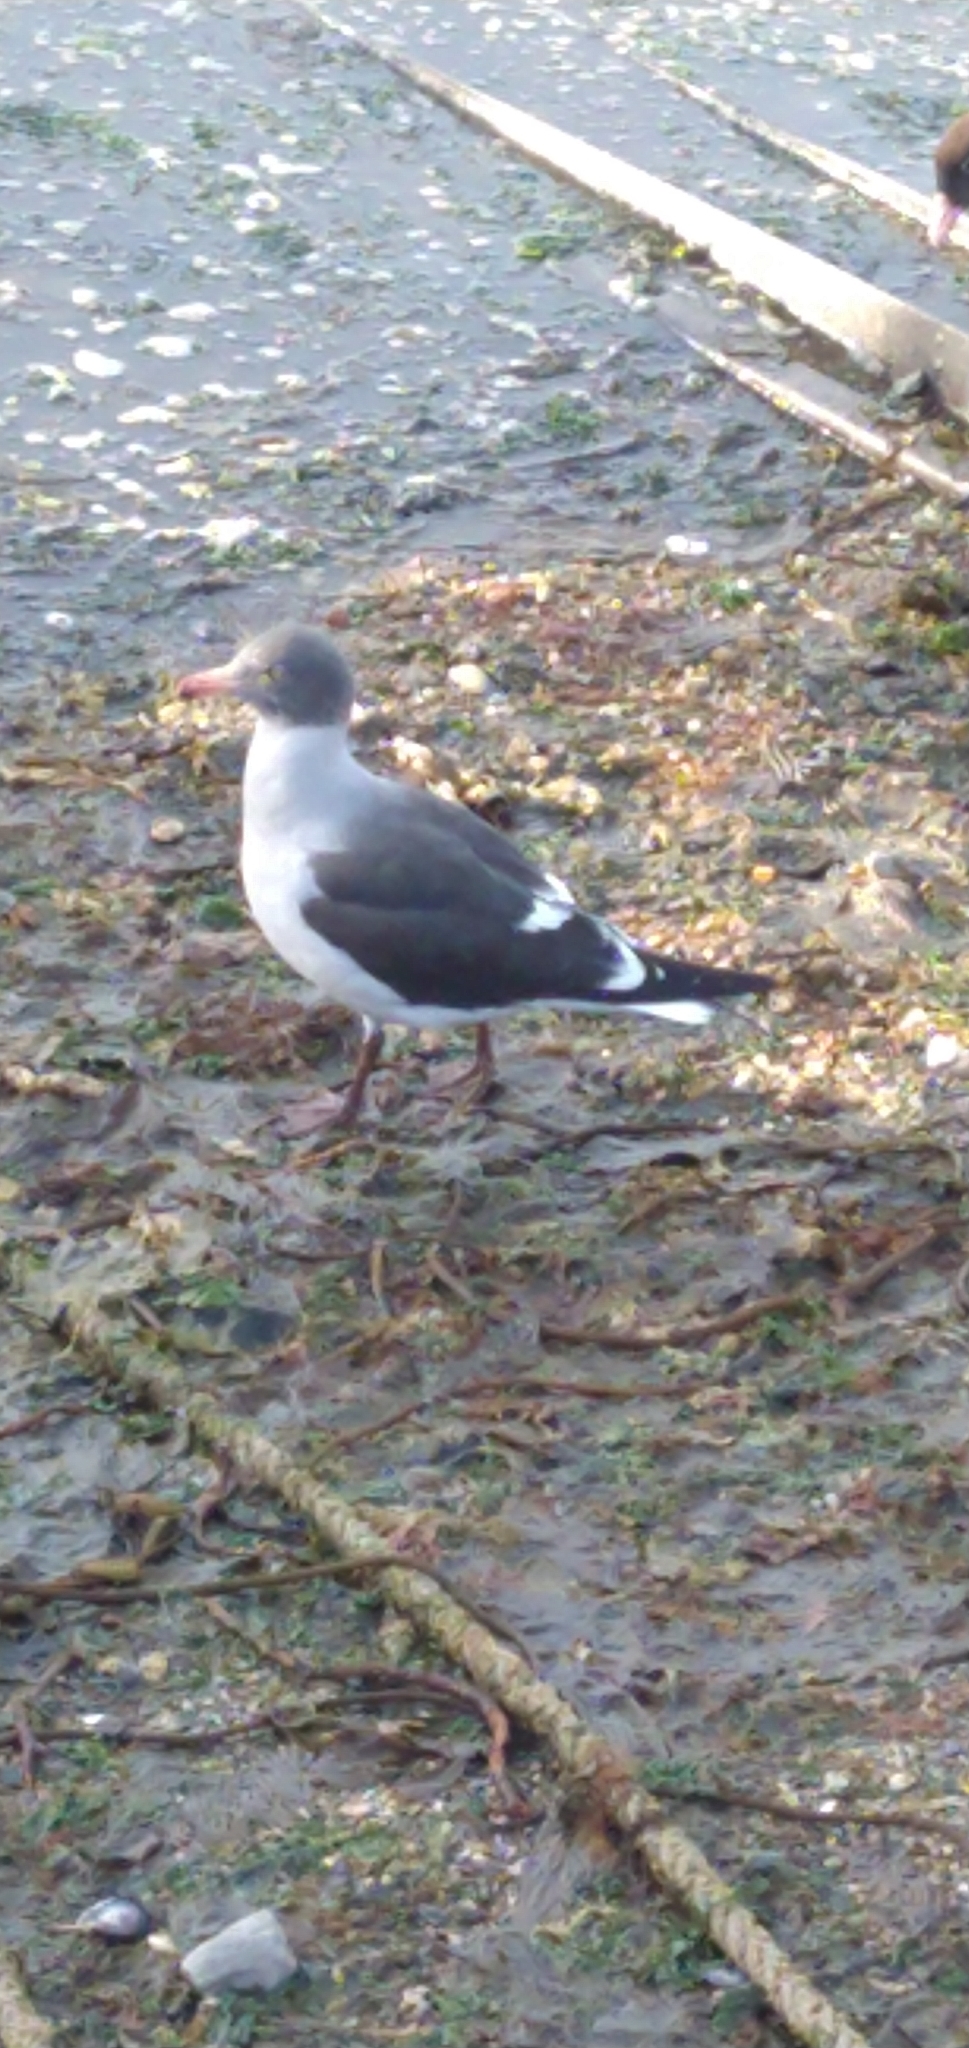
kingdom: Animalia
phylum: Chordata
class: Aves
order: Charadriiformes
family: Laridae
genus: Leucophaeus
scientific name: Leucophaeus scoresbii
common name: Dolphin gull
